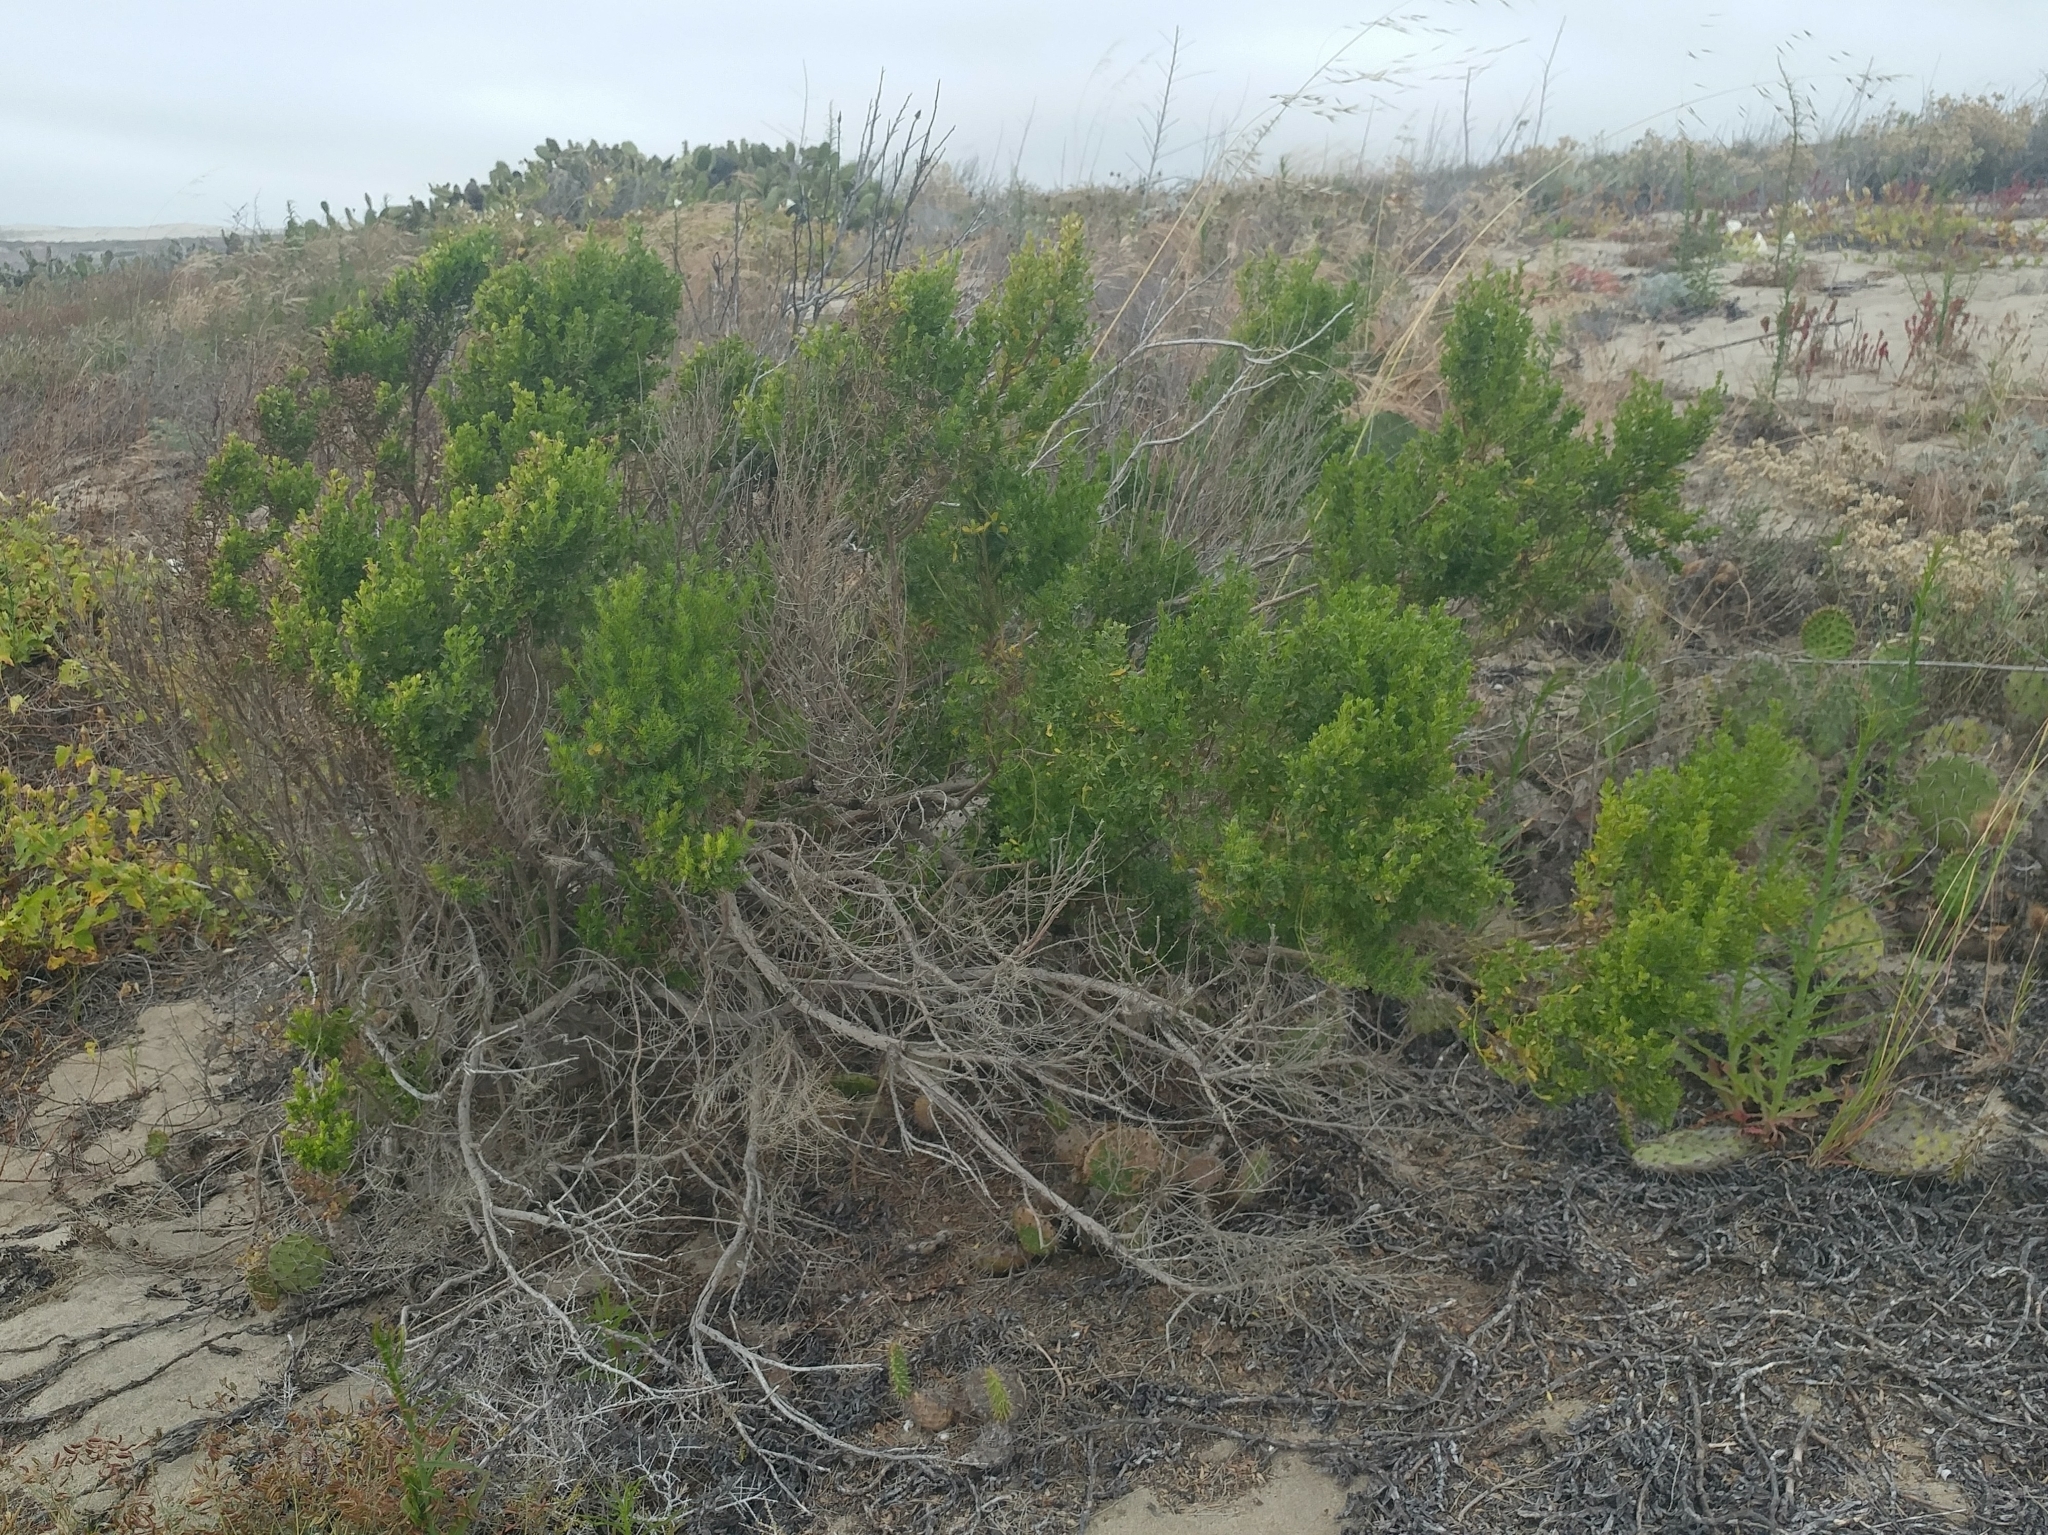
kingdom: Plantae
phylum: Tracheophyta
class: Magnoliopsida
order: Asterales
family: Asteraceae
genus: Baccharis
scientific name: Baccharis pilularis
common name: Coyotebrush
